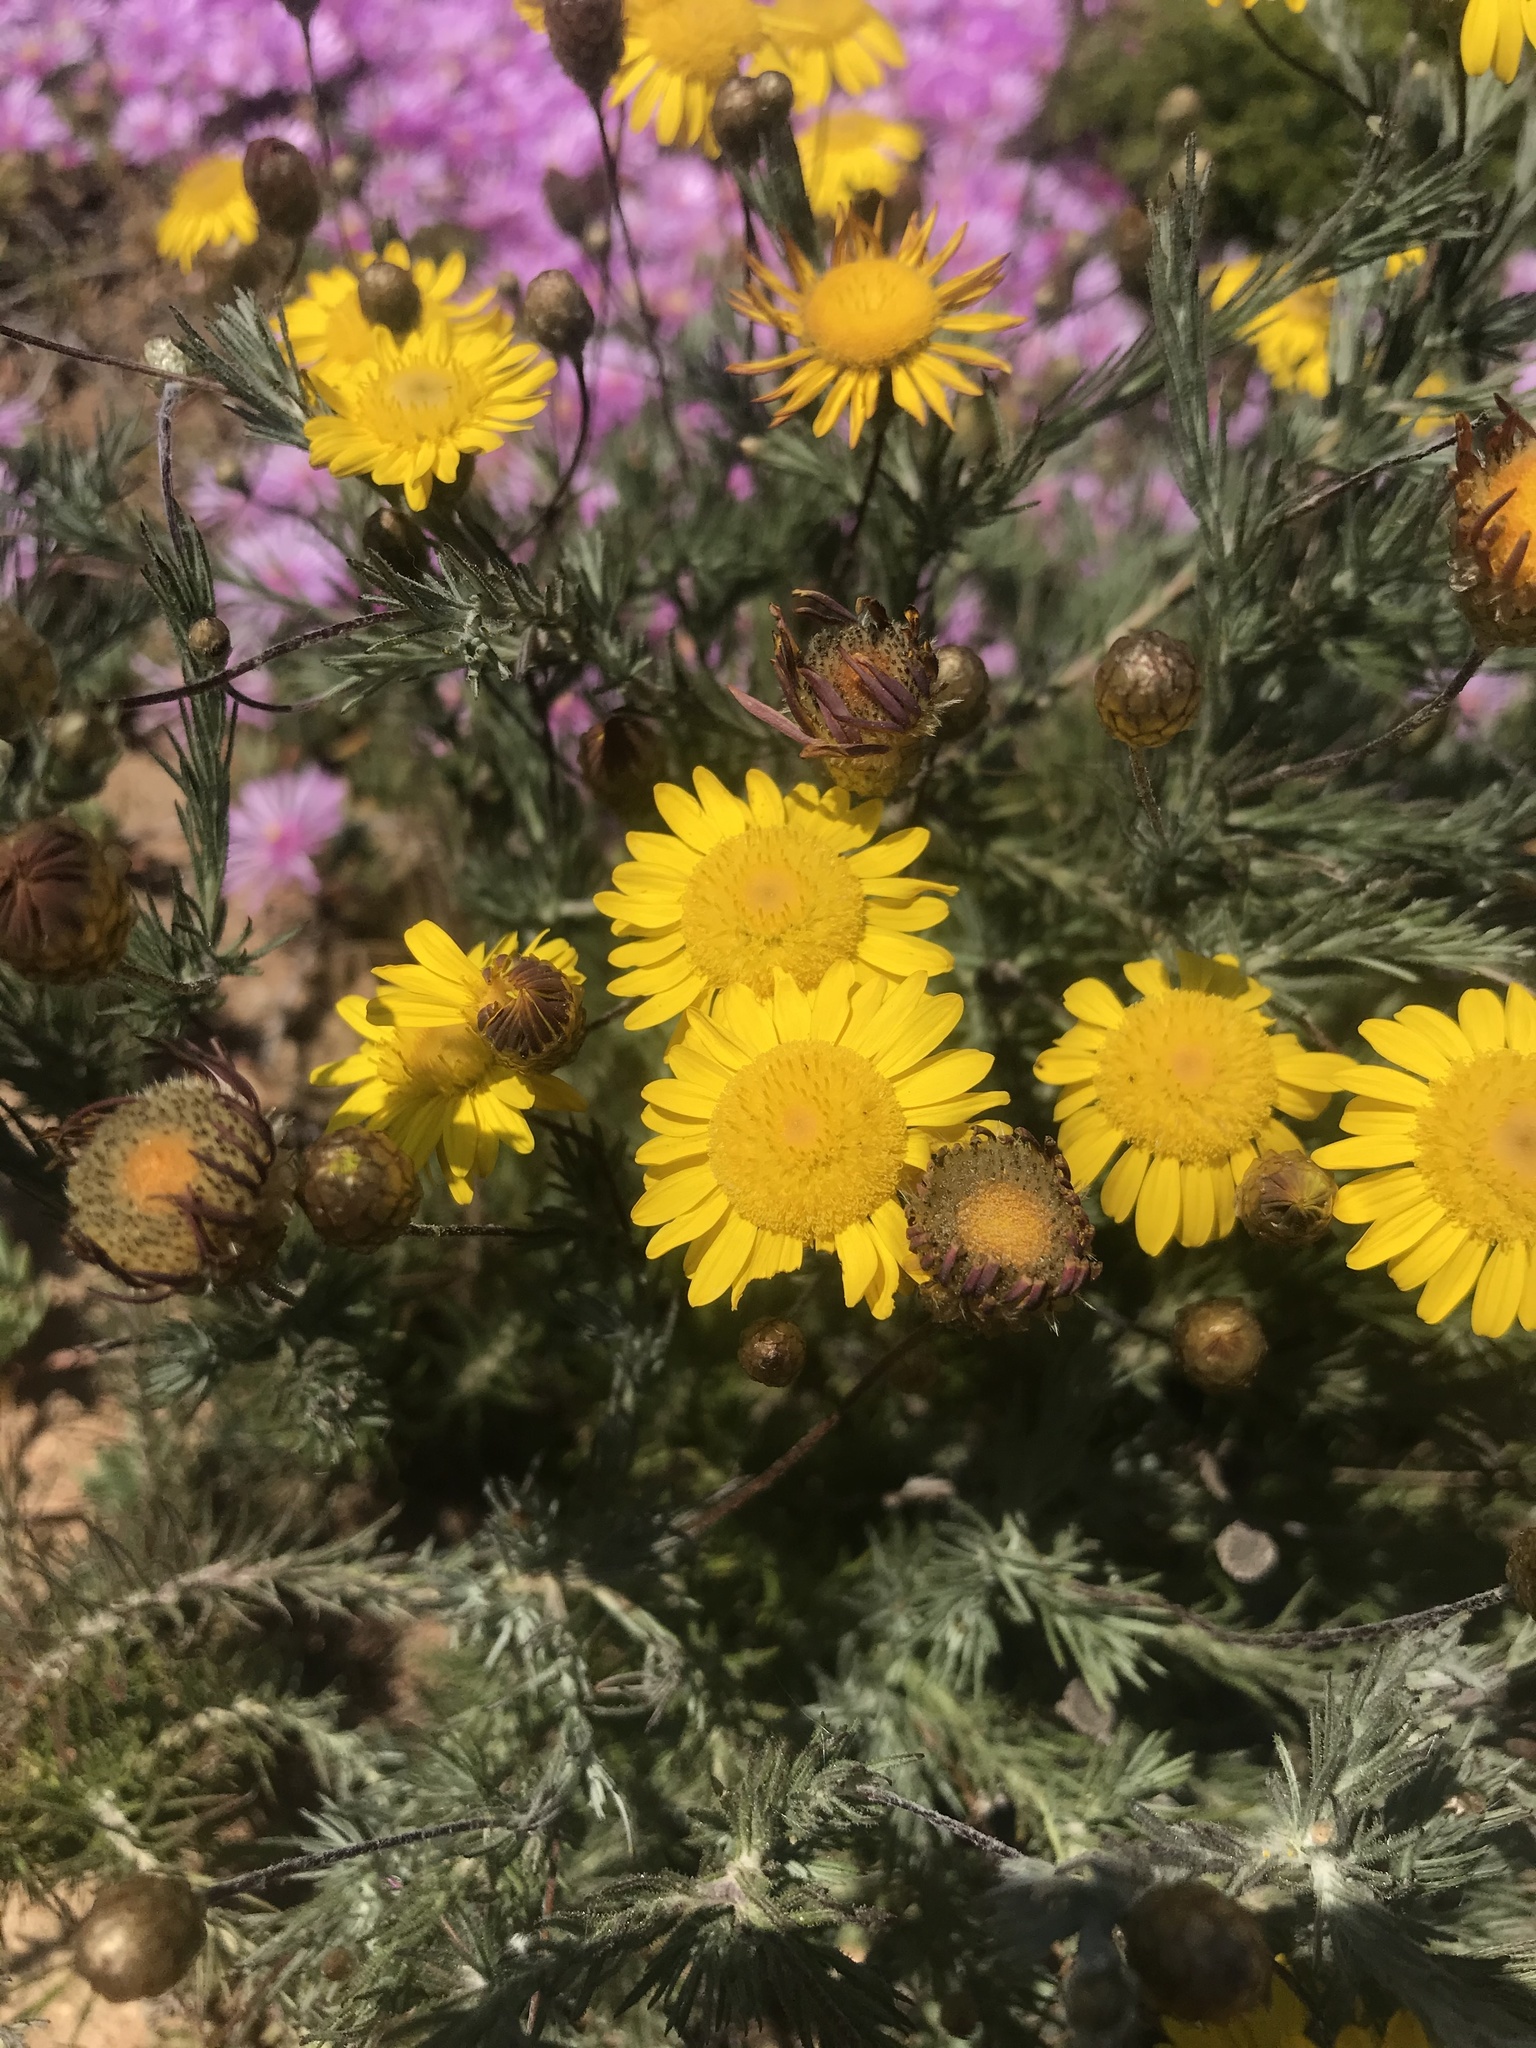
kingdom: Plantae
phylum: Tracheophyta
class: Magnoliopsida
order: Asterales
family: Asteraceae
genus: Leysera
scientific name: Leysera gnaphalodes
